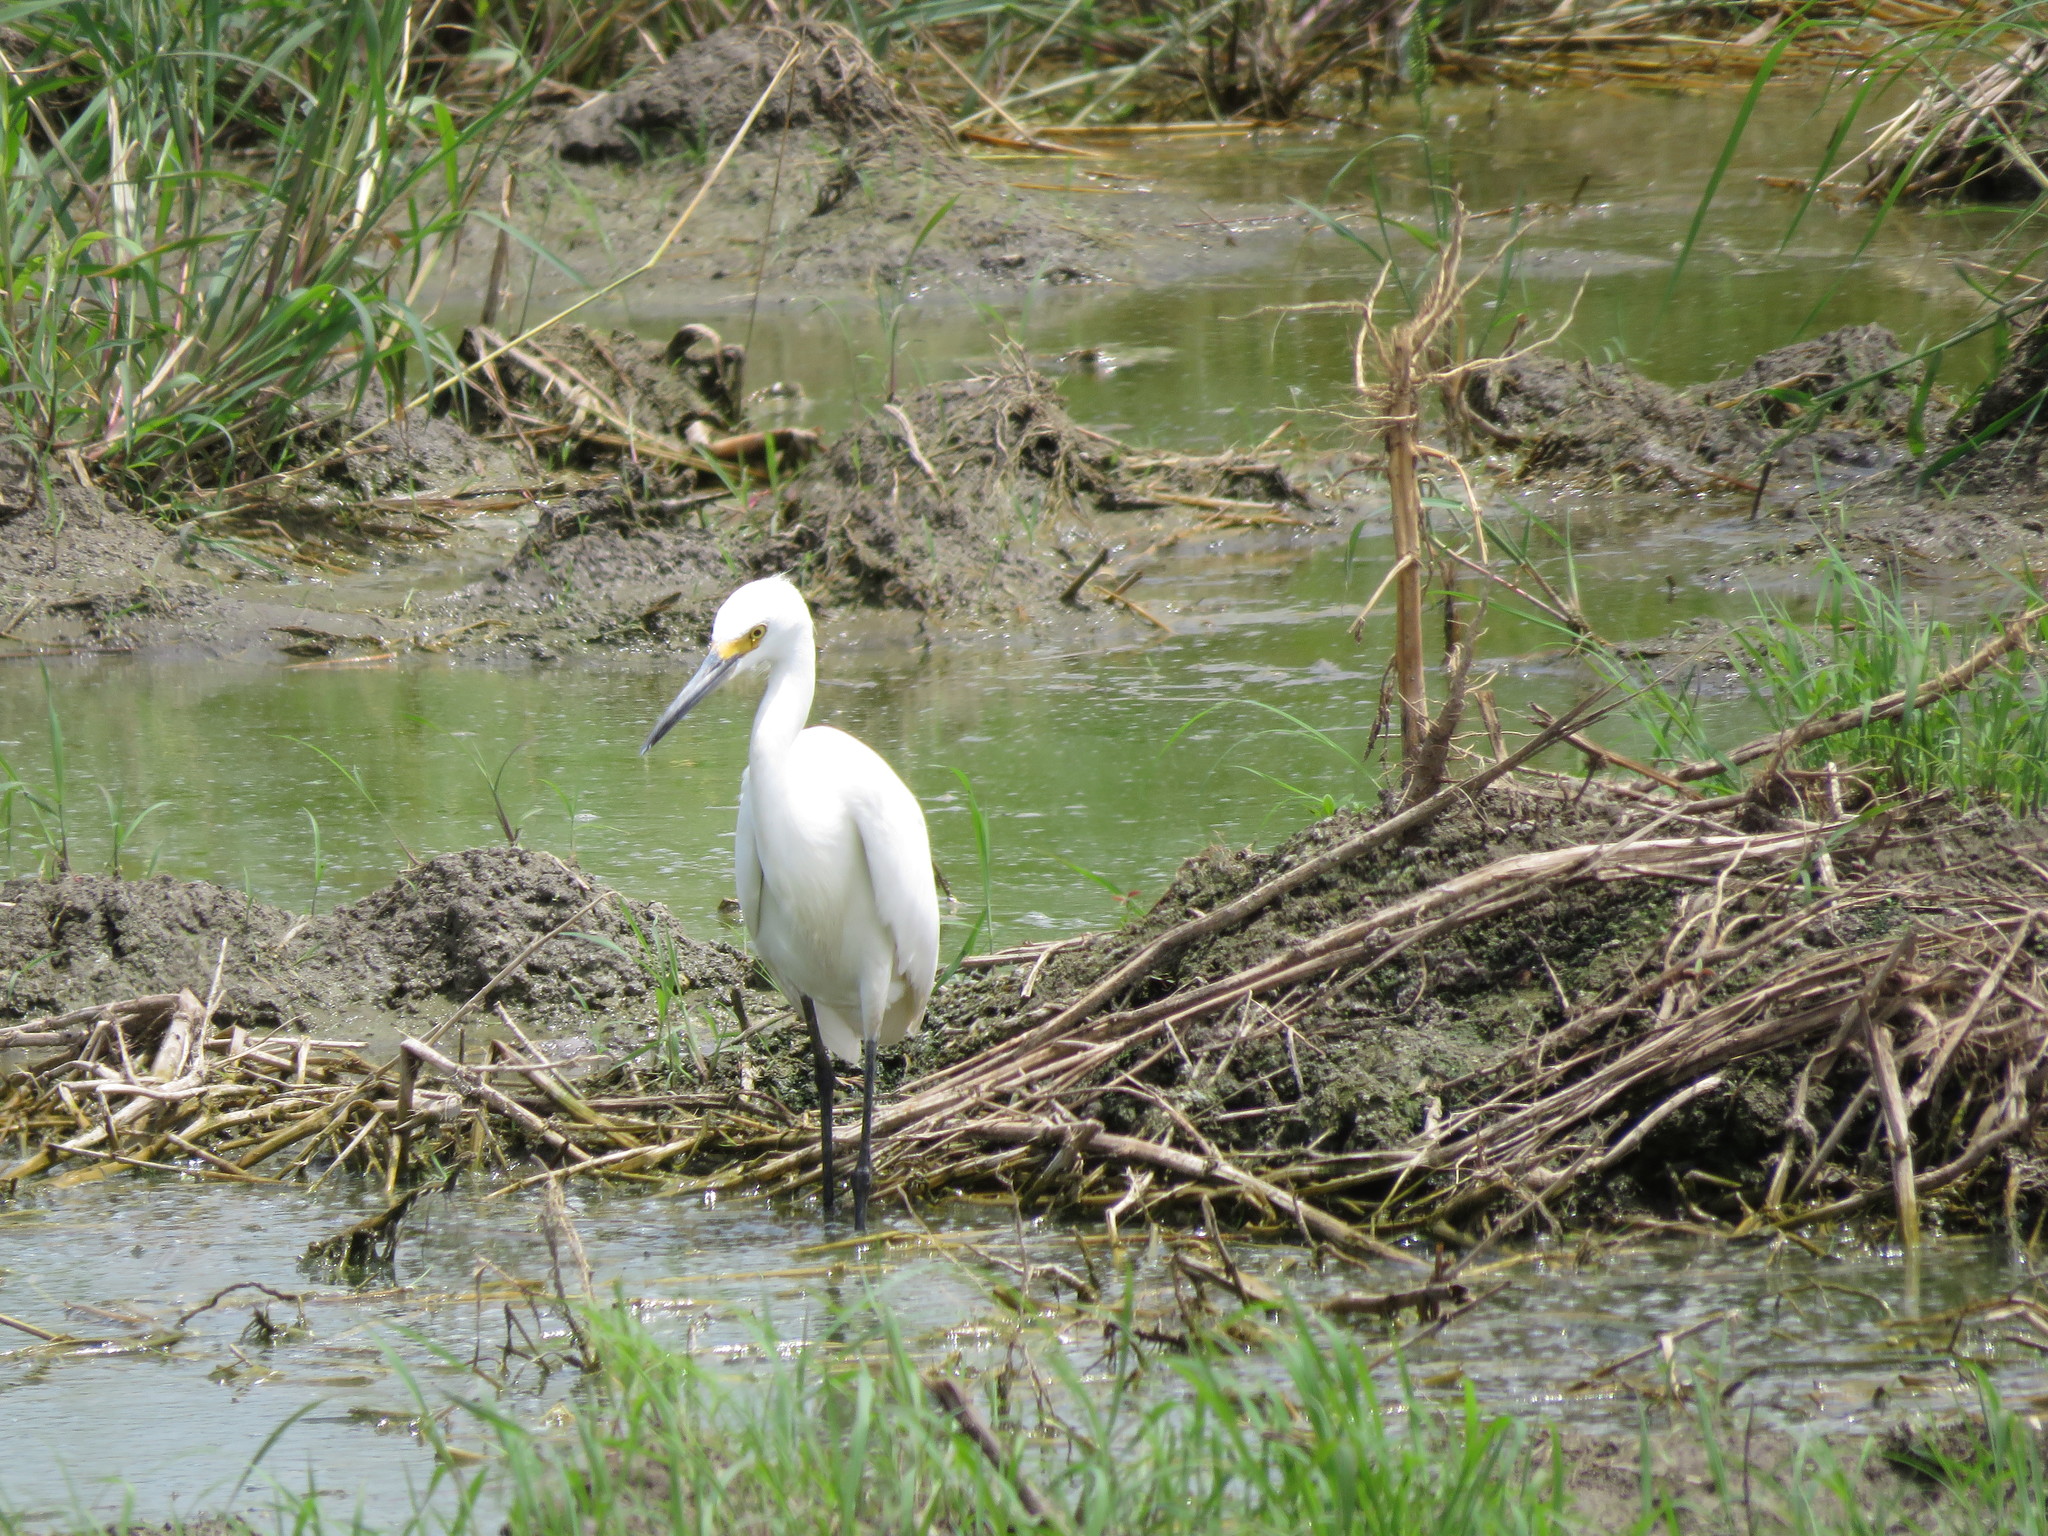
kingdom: Animalia
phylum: Chordata
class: Aves
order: Pelecaniformes
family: Ardeidae
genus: Egretta
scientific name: Egretta thula
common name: Snowy egret
